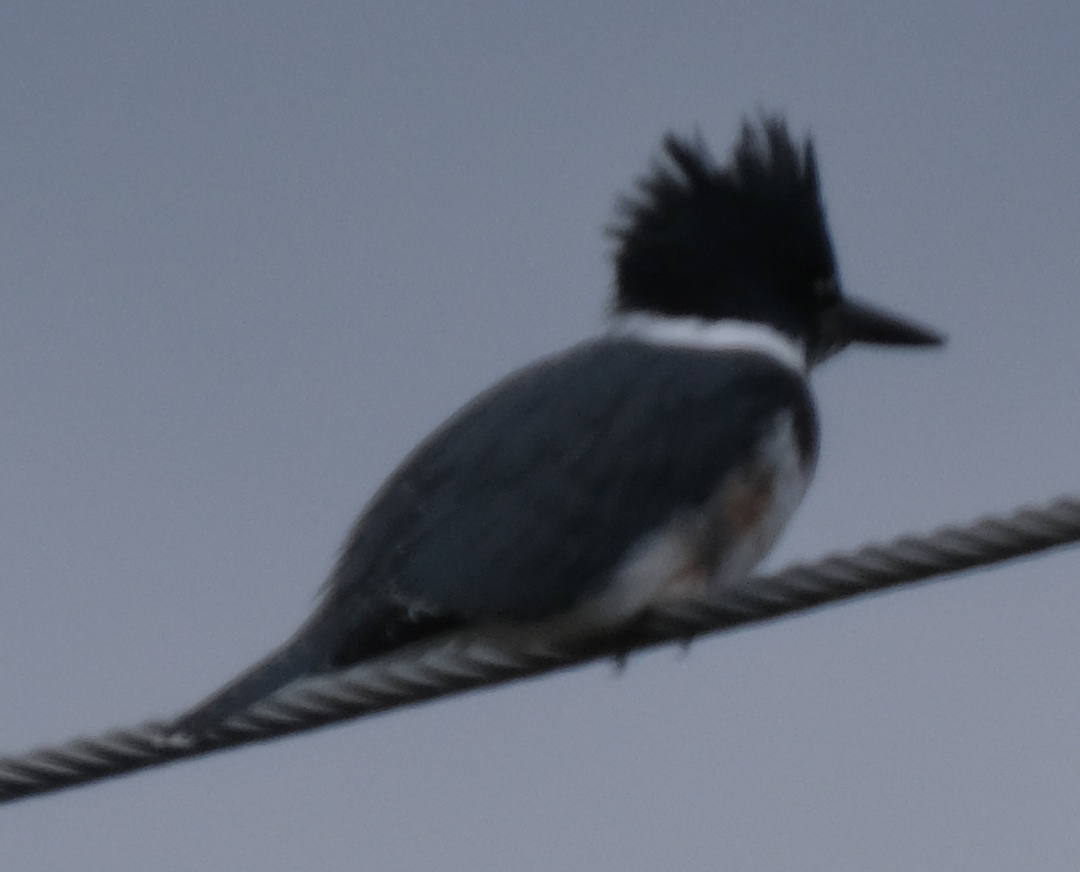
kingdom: Animalia
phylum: Chordata
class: Aves
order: Coraciiformes
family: Alcedinidae
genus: Megaceryle
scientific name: Megaceryle alcyon
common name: Belted kingfisher
